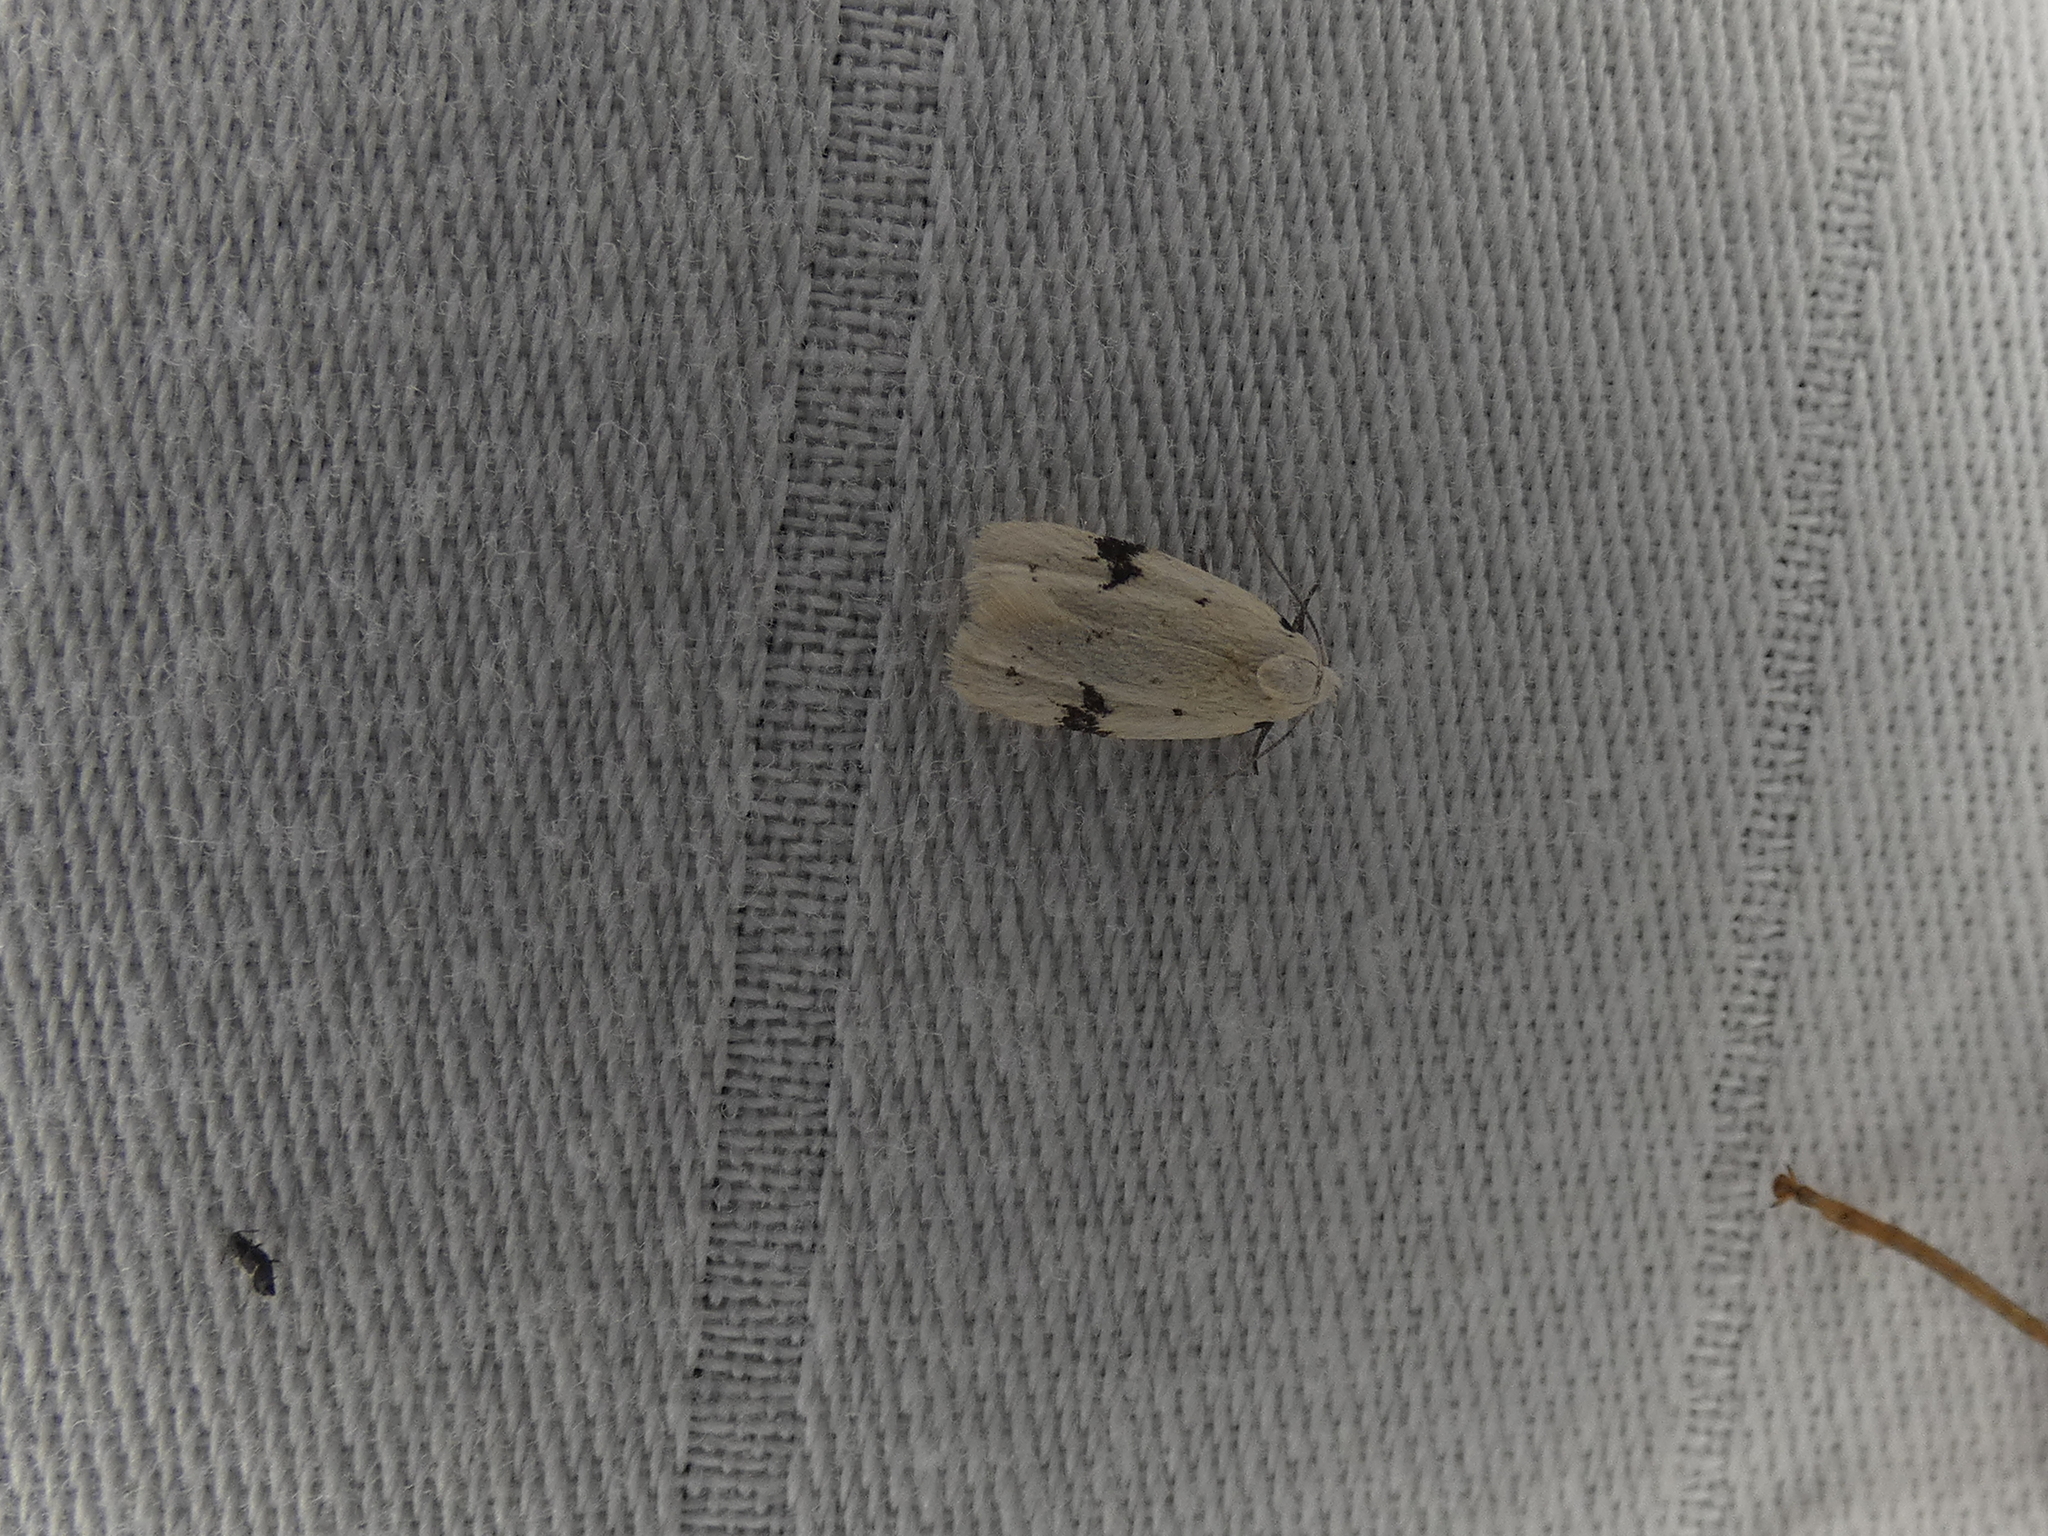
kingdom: Animalia
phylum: Arthropoda
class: Insecta
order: Lepidoptera
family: Oecophoridae
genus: Inga
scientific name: Inga sparsiciliella
